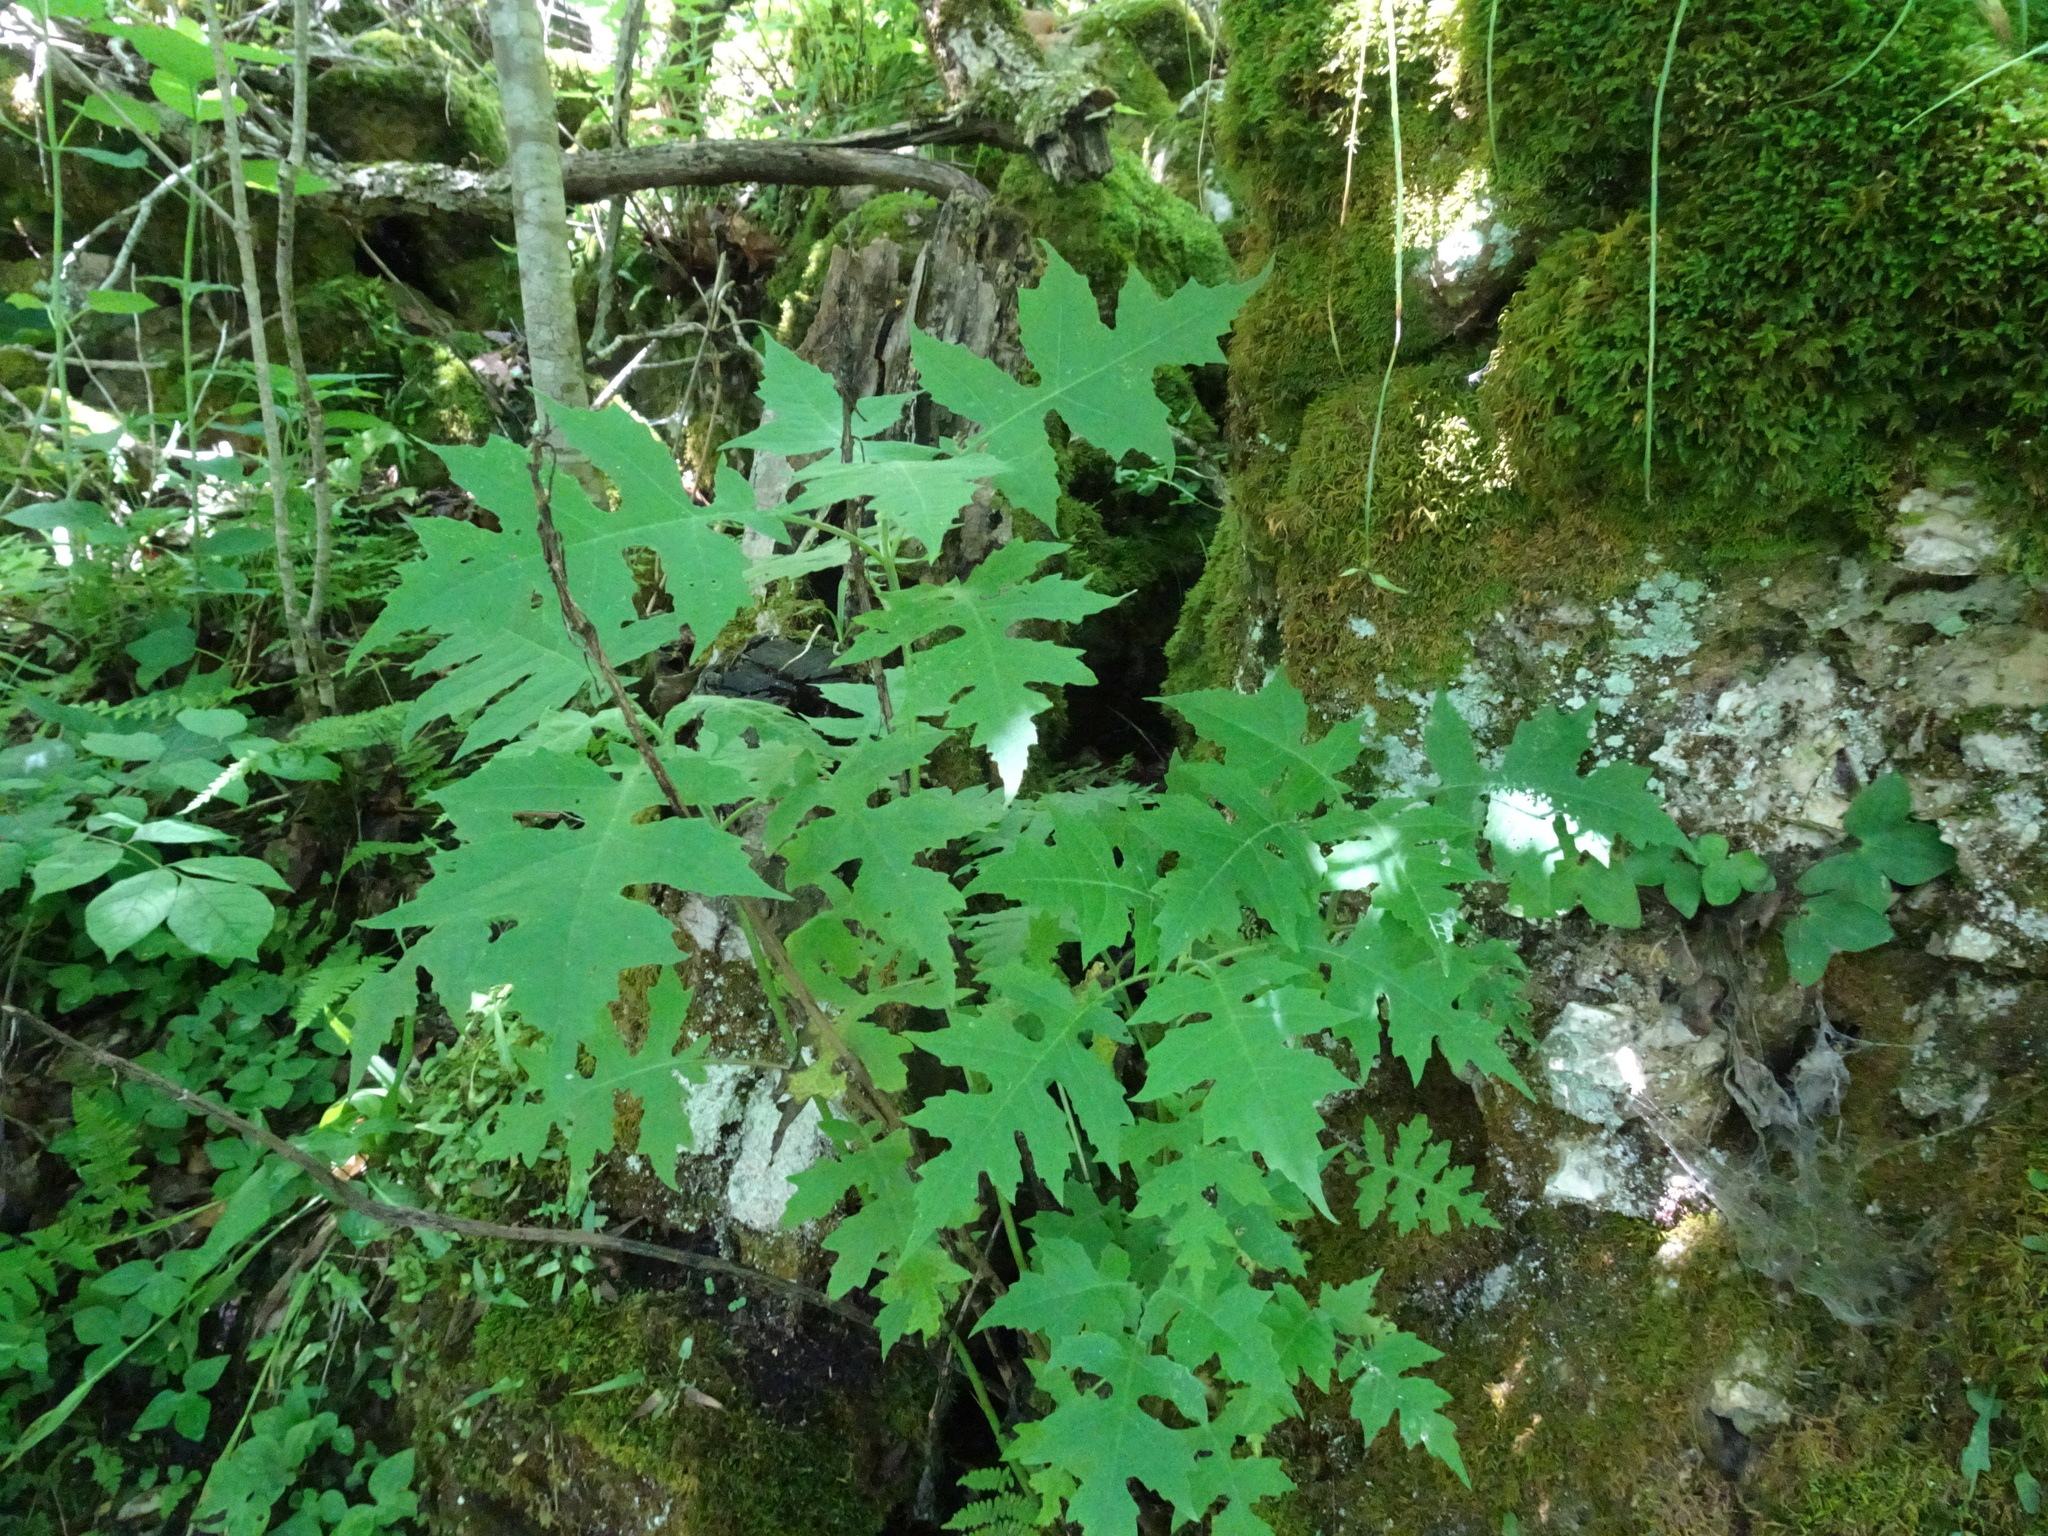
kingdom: Plantae
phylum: Tracheophyta
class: Magnoliopsida
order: Asterales
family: Asteraceae
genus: Polymnia
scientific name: Polymnia canadensis
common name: Pale-flowered leafcup
